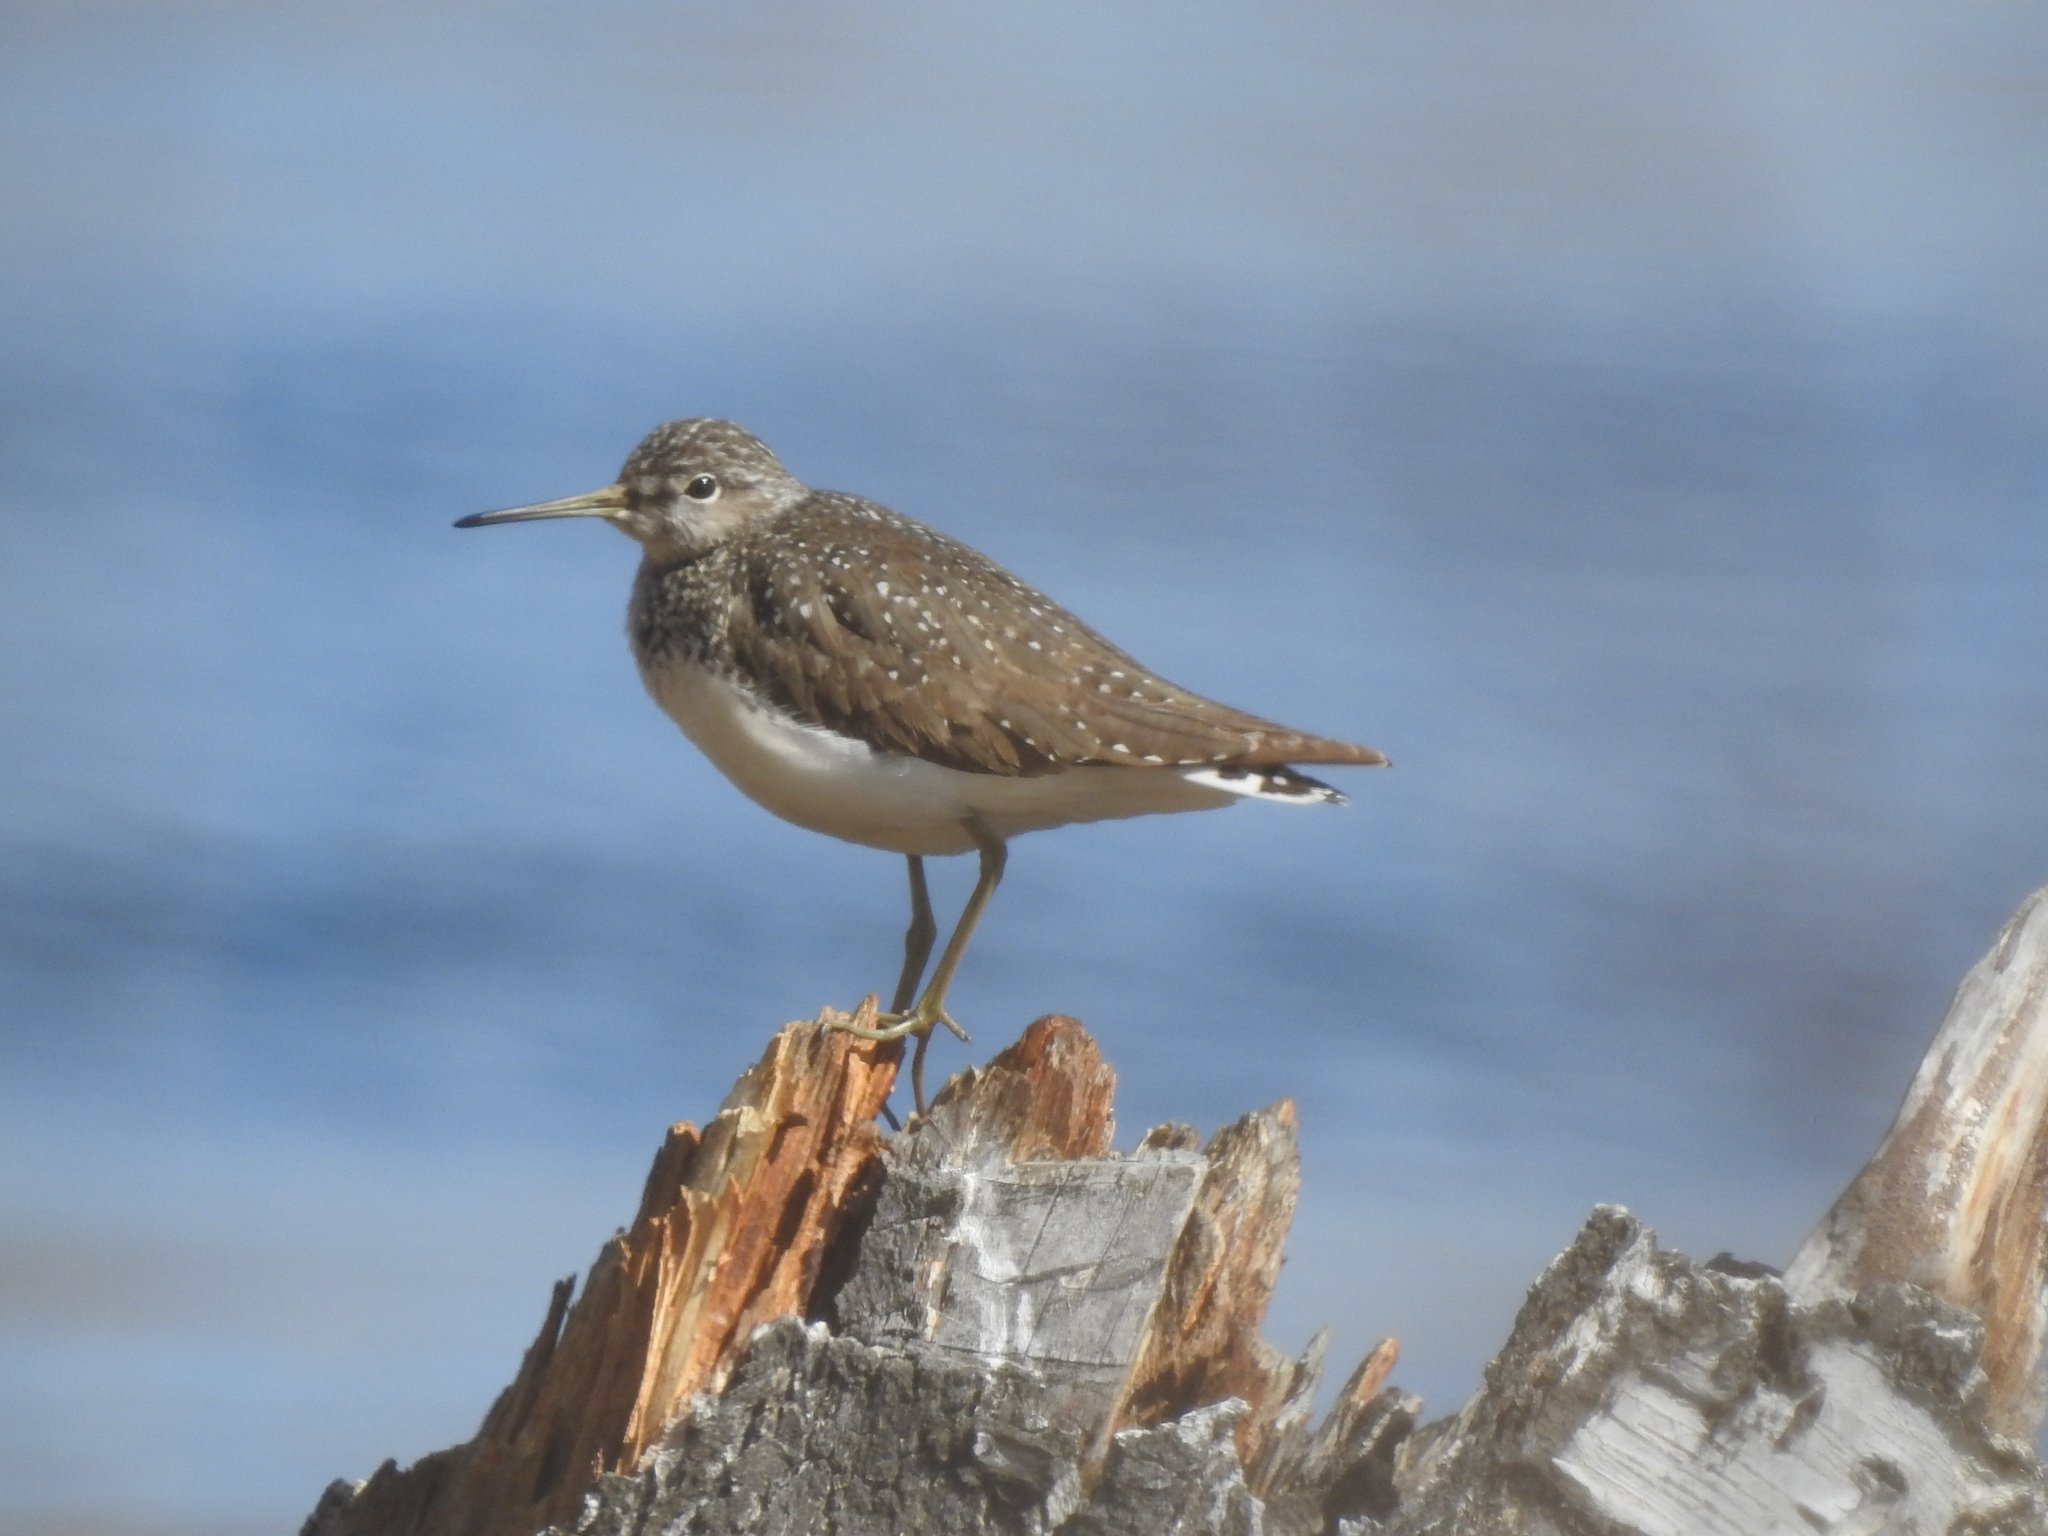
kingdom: Animalia
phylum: Chordata
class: Aves
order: Charadriiformes
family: Scolopacidae
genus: Tringa
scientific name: Tringa ochropus
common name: Green sandpiper
